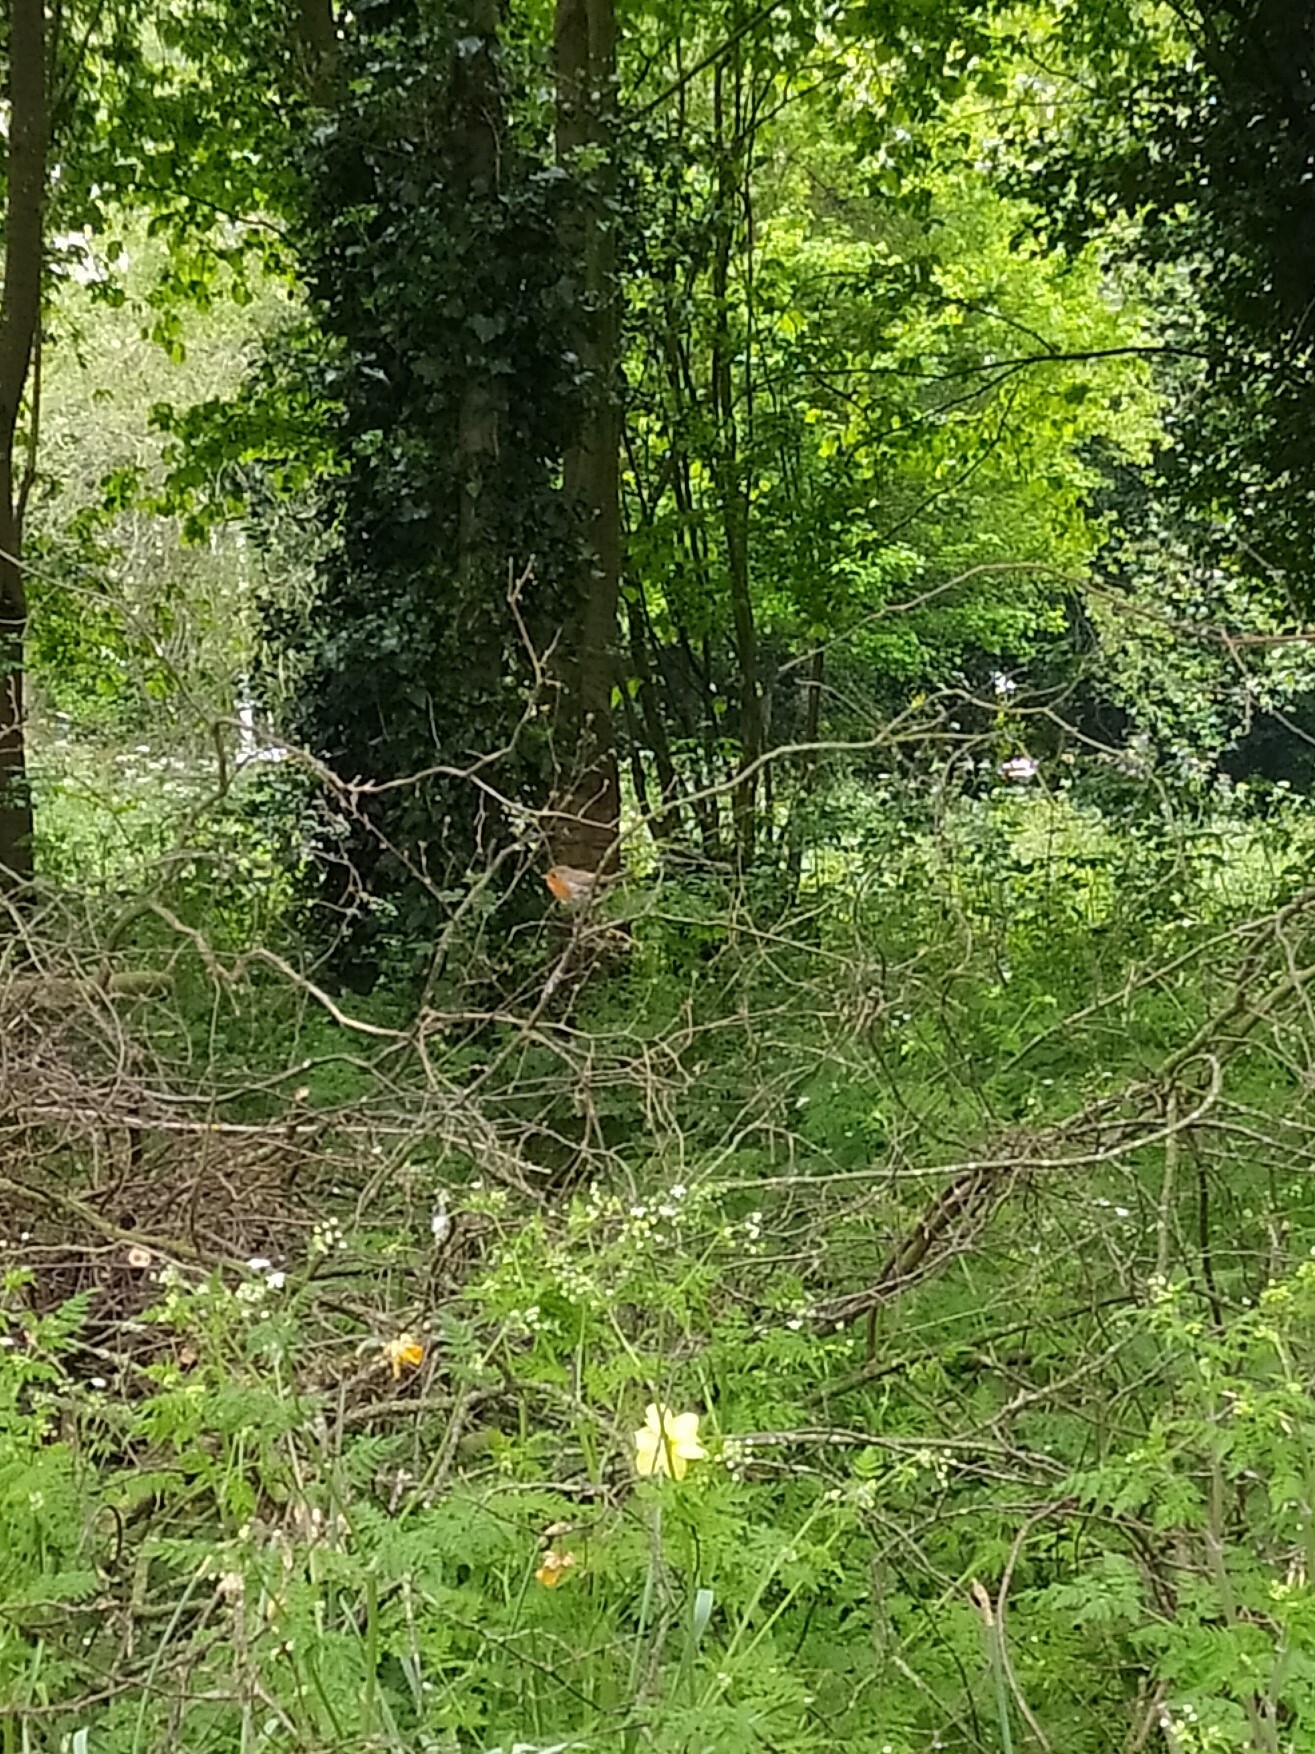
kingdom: Animalia
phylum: Chordata
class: Aves
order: Passeriformes
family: Muscicapidae
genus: Erithacus
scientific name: Erithacus rubecula
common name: European robin
